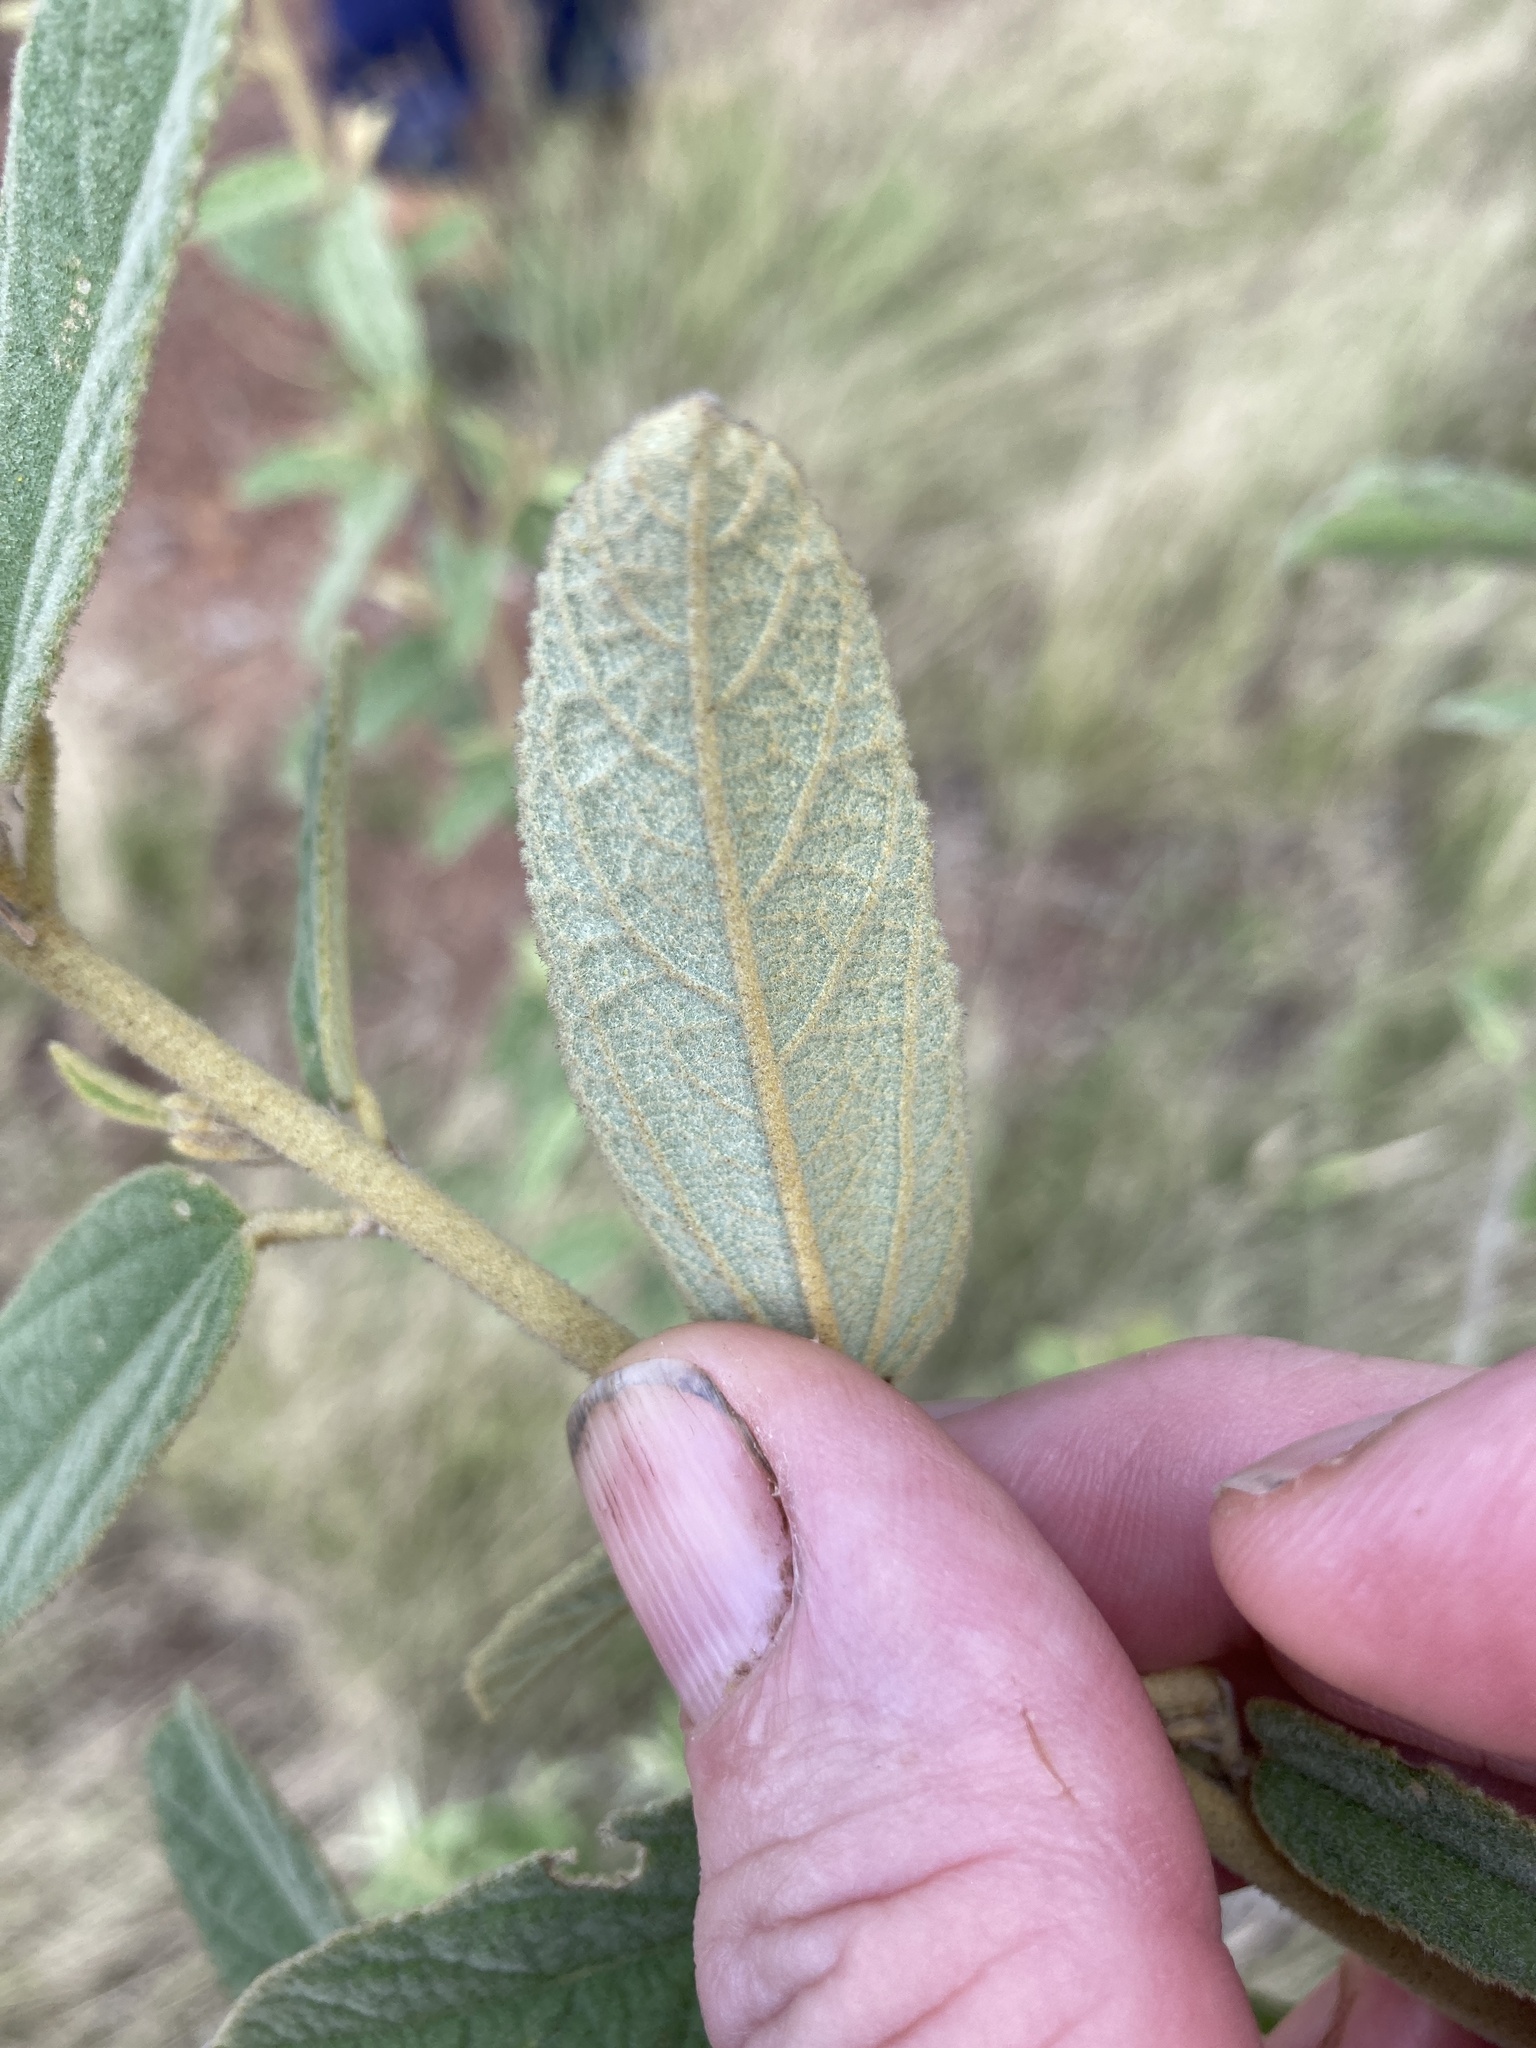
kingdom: Plantae
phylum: Tracheophyta
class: Magnoliopsida
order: Malvales
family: Malvaceae
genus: Sida
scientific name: Sida hackettiana
